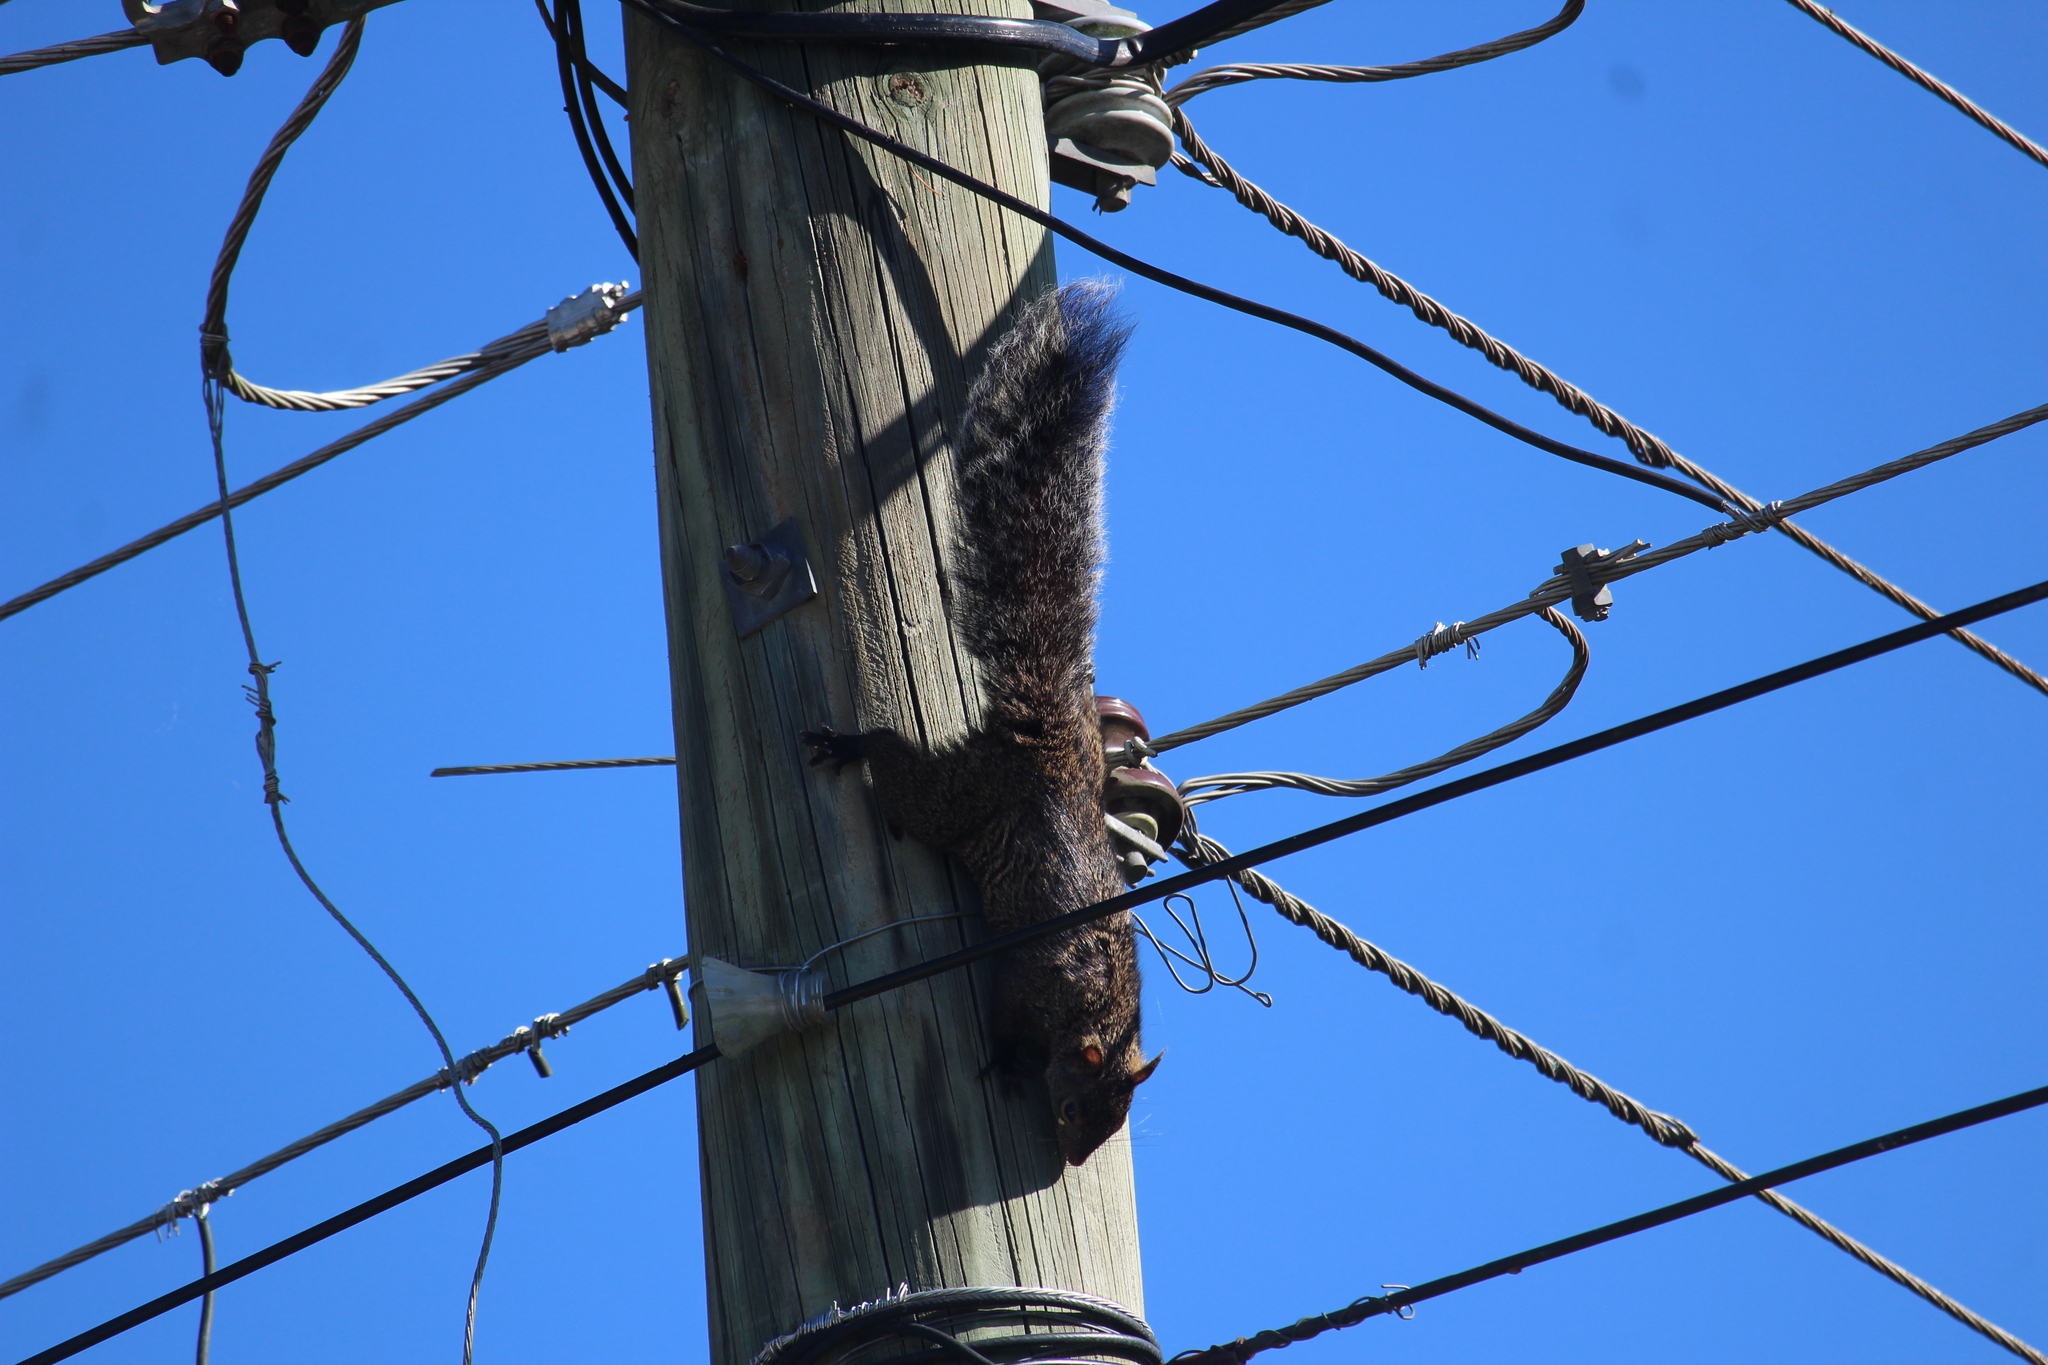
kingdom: Animalia
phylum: Chordata
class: Mammalia
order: Rodentia
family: Sciuridae
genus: Sciurus
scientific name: Sciurus yucatanensis
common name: Yucatan squirrel
